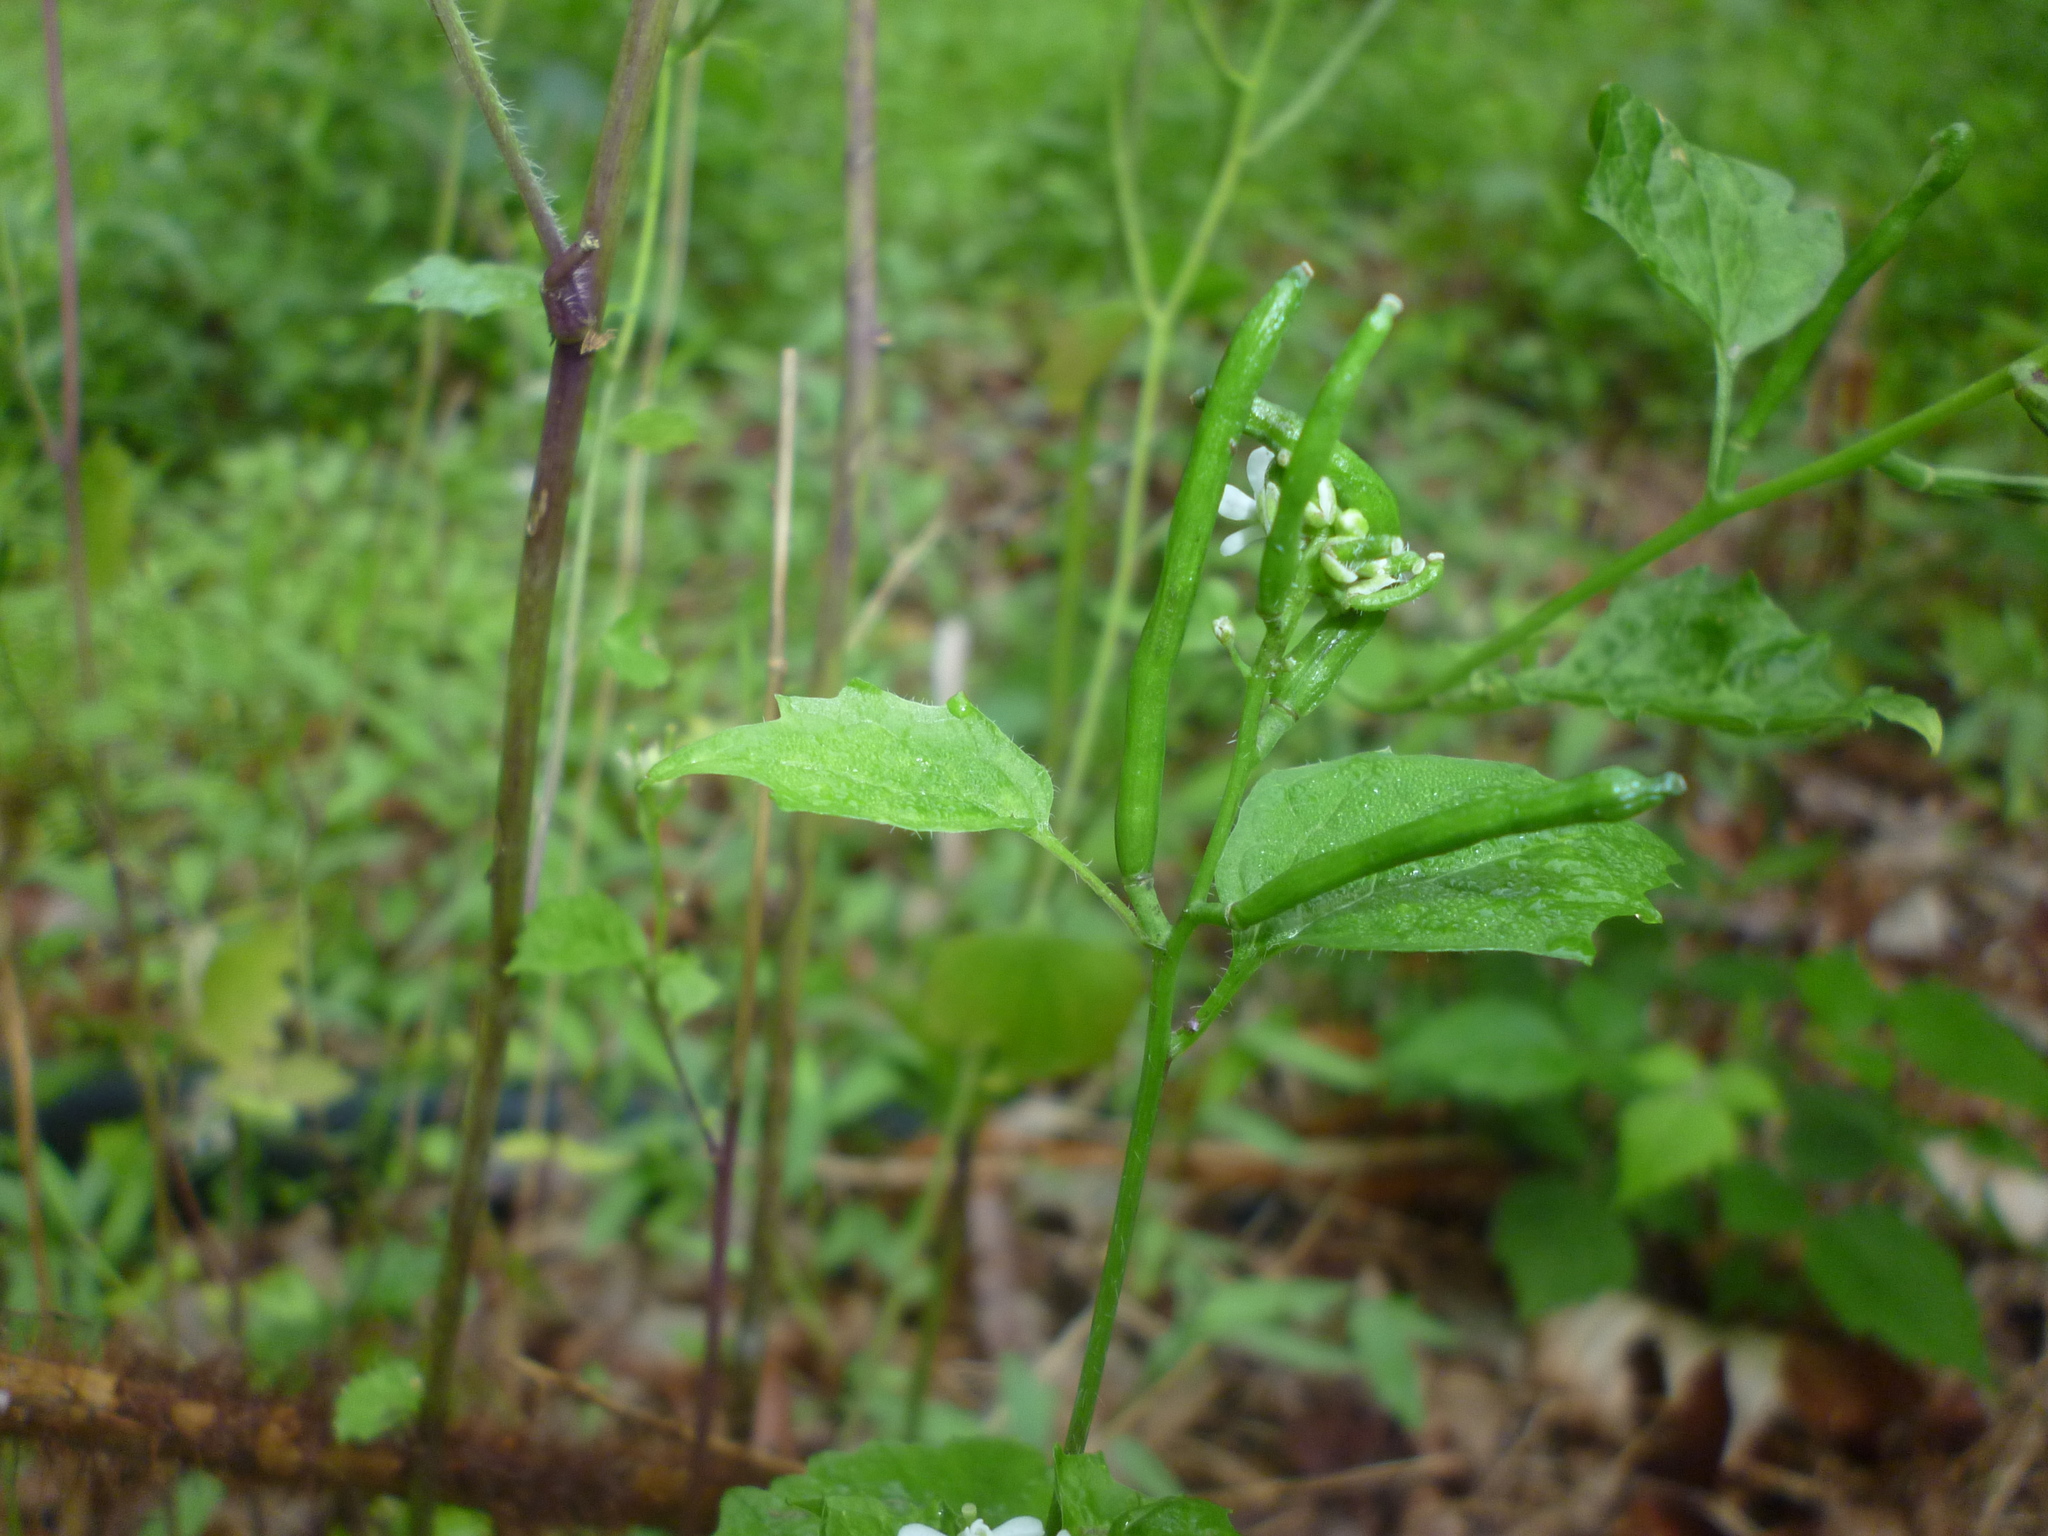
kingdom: Plantae
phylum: Tracheophyta
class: Magnoliopsida
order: Brassicales
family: Brassicaceae
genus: Alliaria
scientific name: Alliaria petiolata
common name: Garlic mustard
